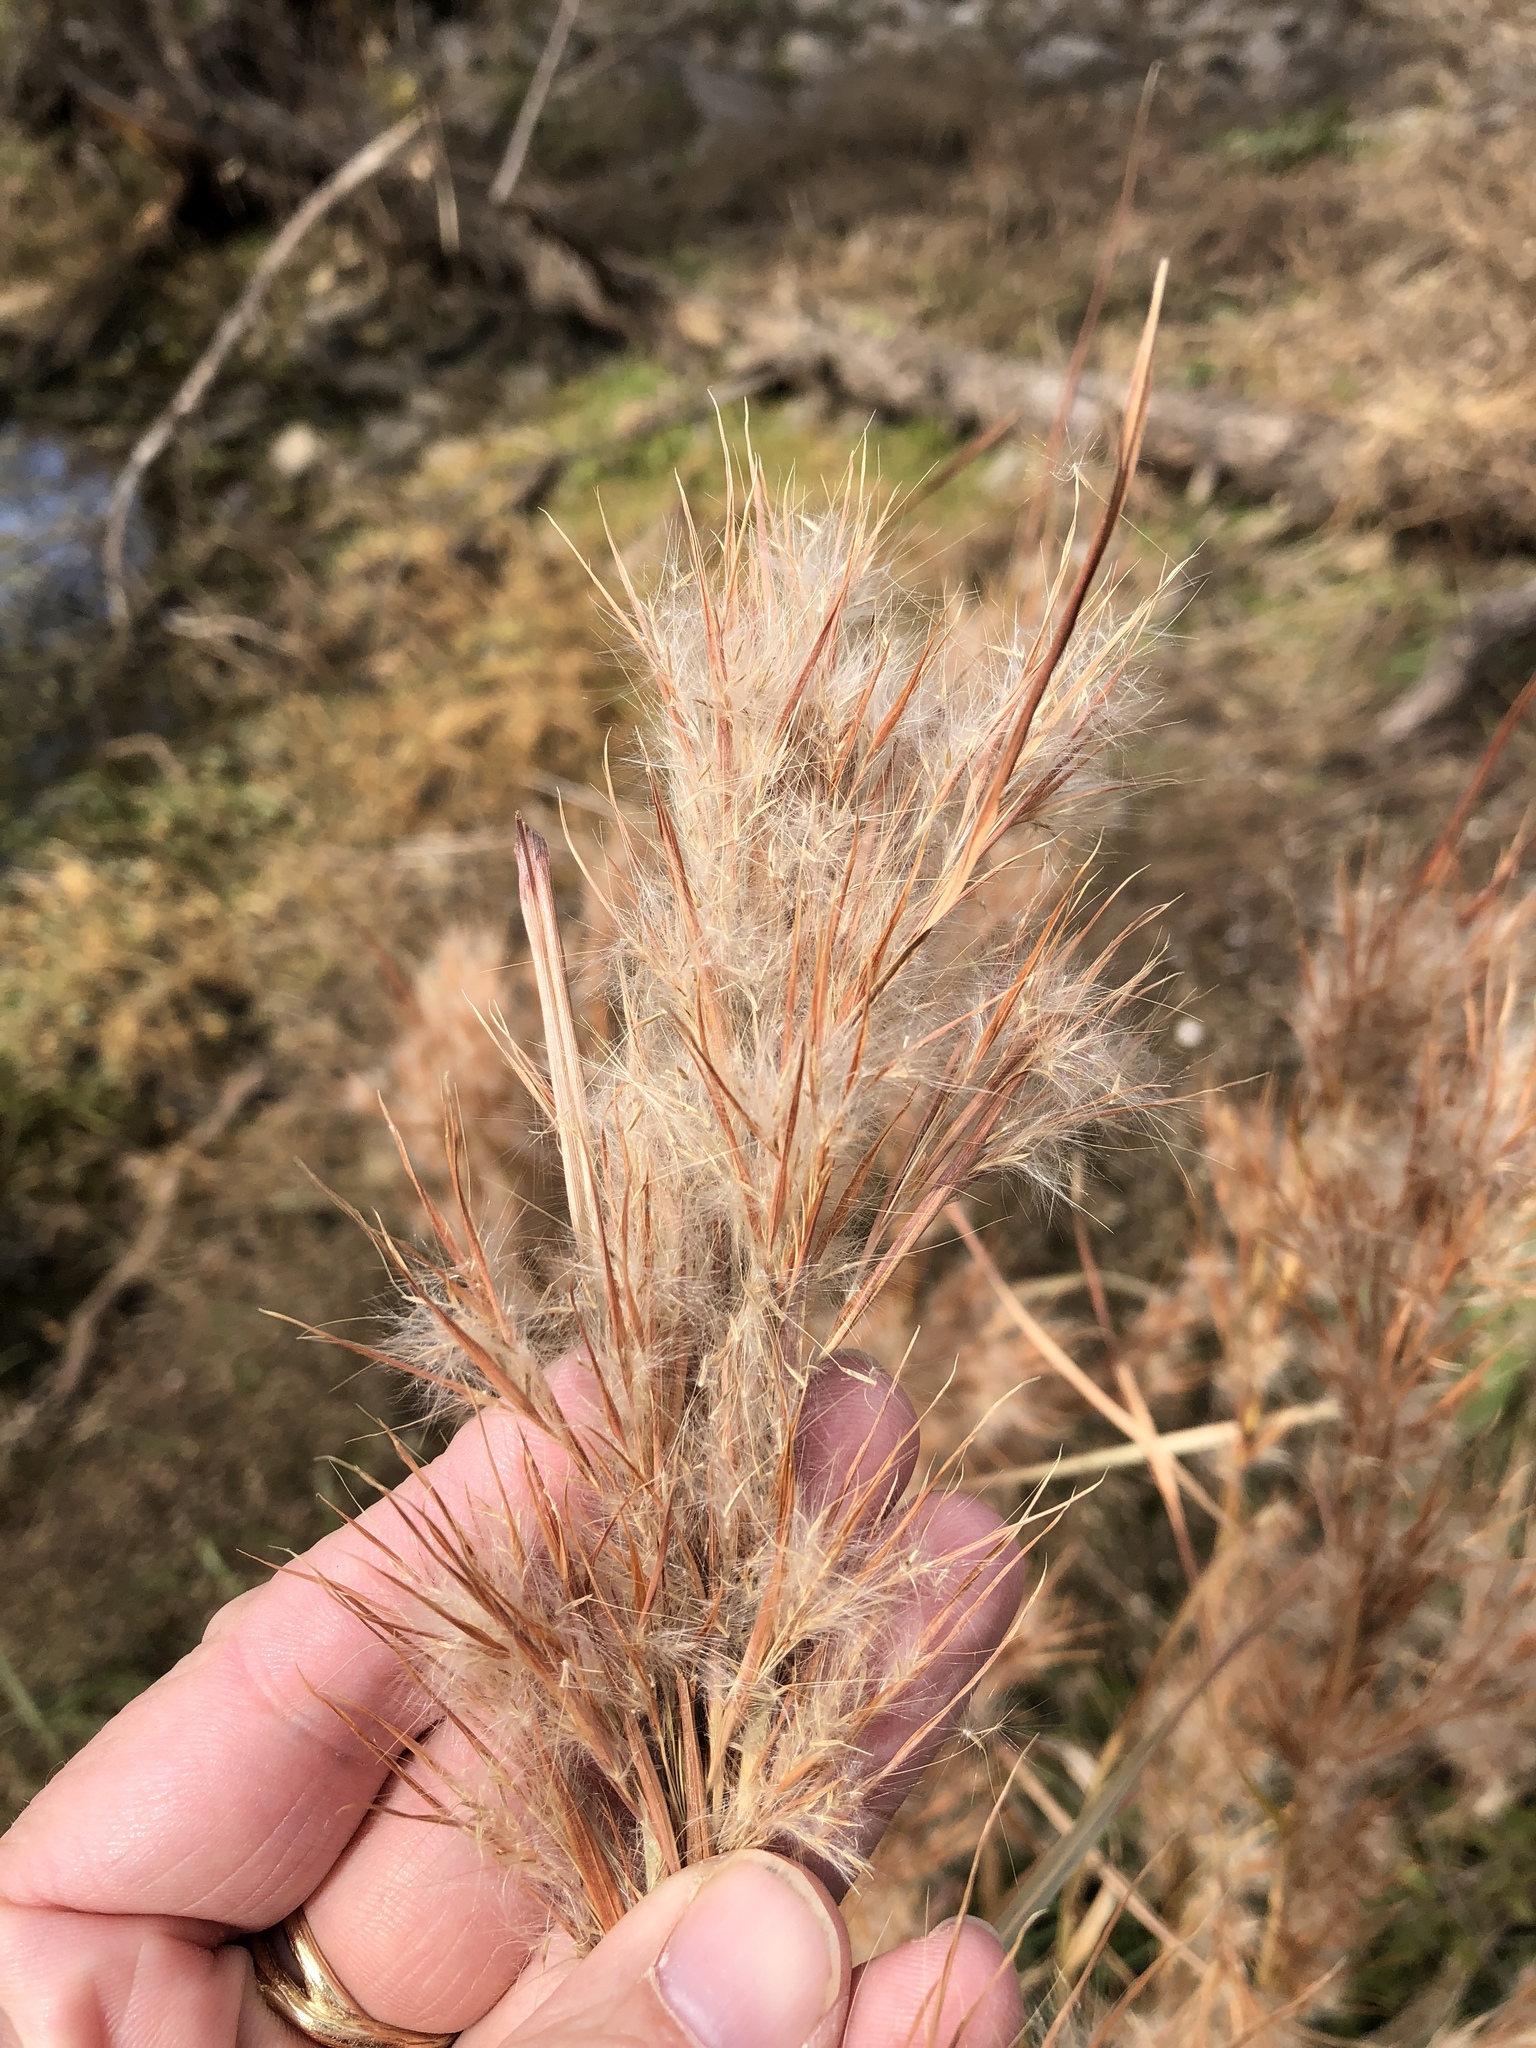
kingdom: Plantae
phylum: Tracheophyta
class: Liliopsida
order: Poales
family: Poaceae
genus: Andropogon
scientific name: Andropogon tenuispatheus
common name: Bushy bluestem
